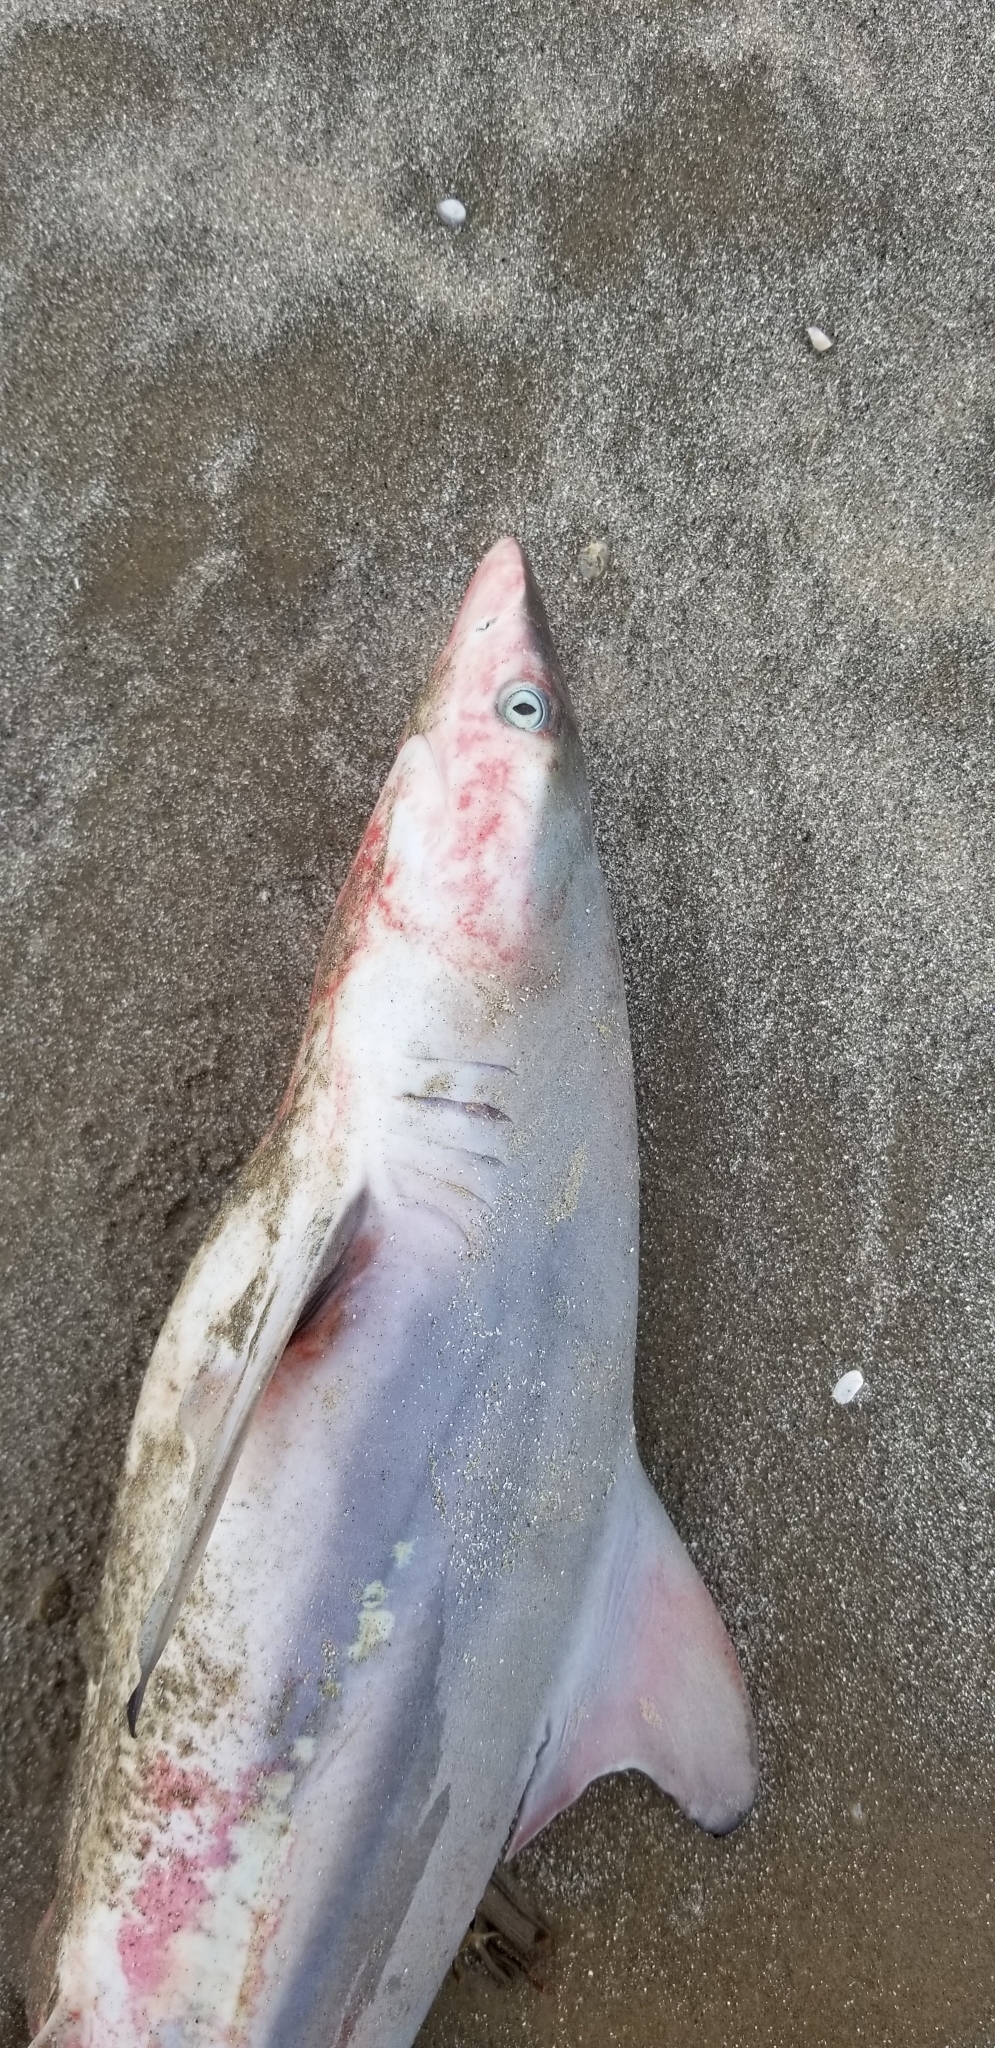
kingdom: Animalia
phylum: Chordata
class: Elasmobranchii
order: Carcharhiniformes
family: Carcharhinidae
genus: Carcharhinus
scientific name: Carcharhinus limbatus
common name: Blacktip shark
